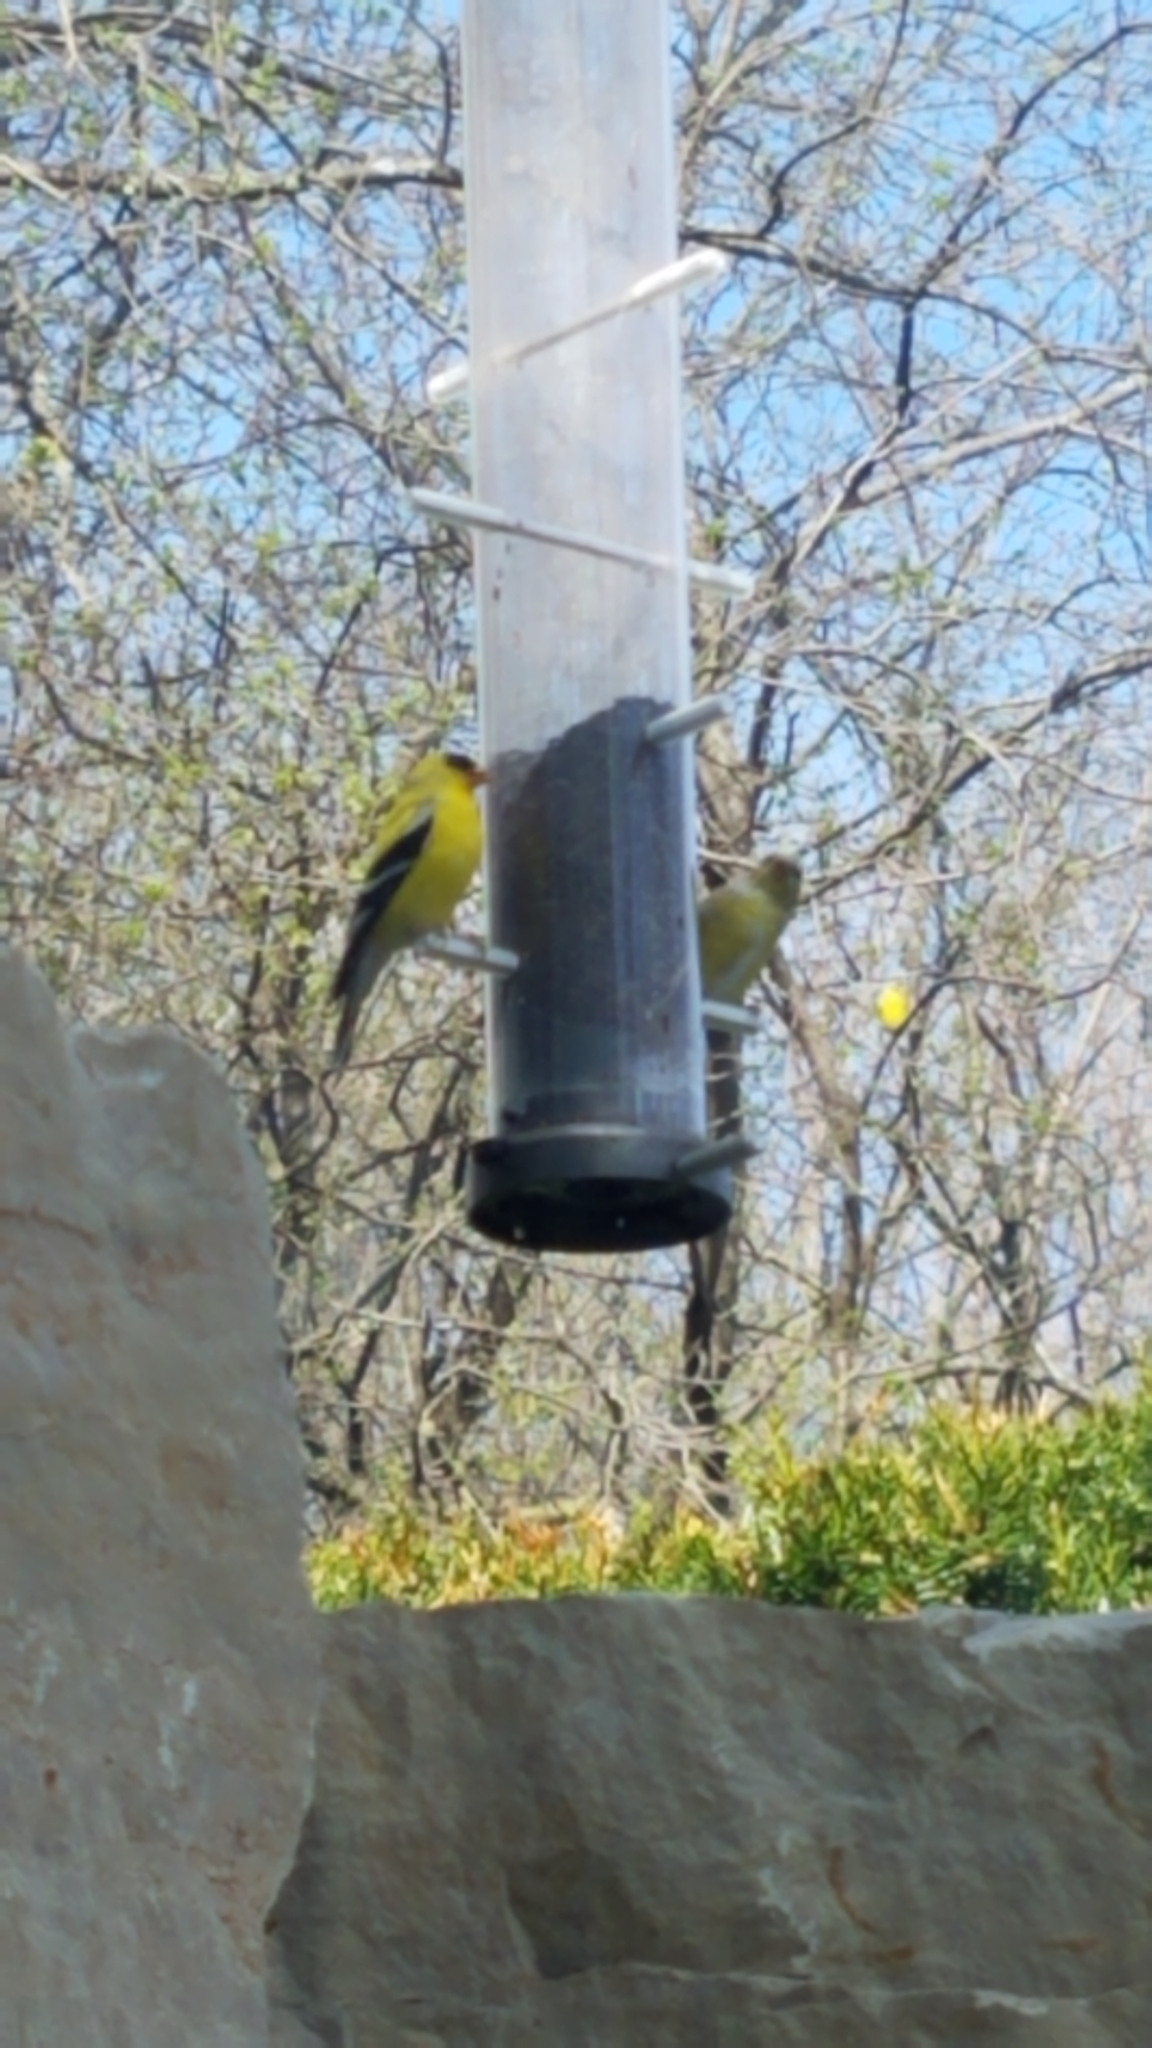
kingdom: Animalia
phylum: Chordata
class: Aves
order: Passeriformes
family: Fringillidae
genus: Spinus
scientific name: Spinus tristis
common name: American goldfinch
